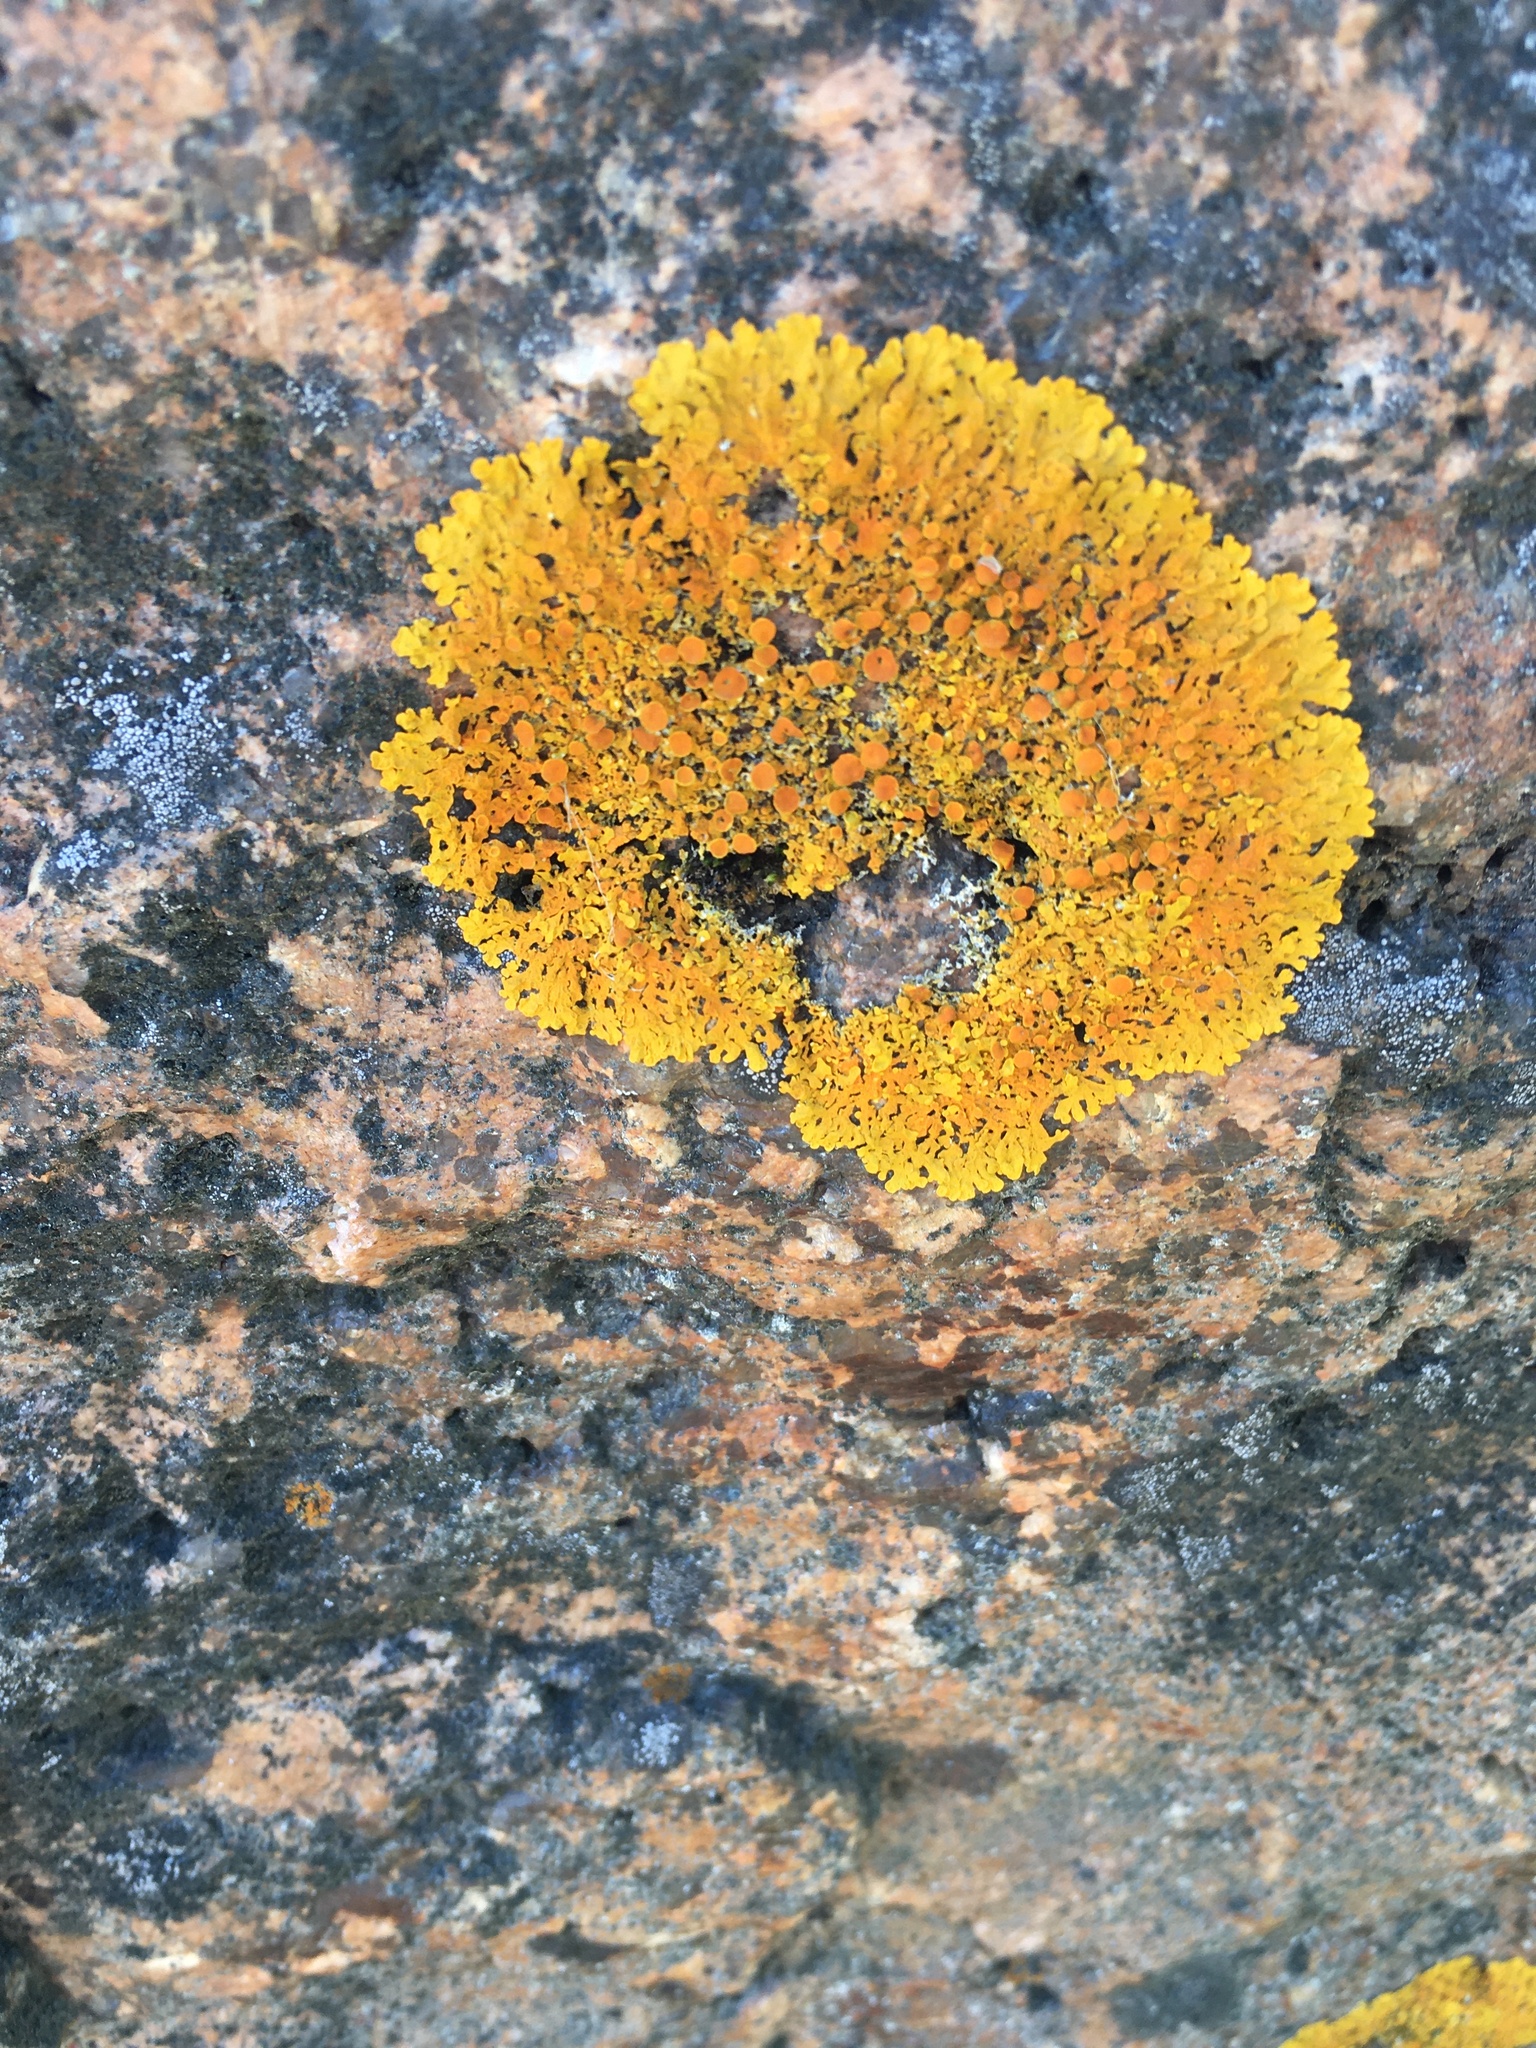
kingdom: Fungi
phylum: Ascomycota
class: Lecanoromycetes
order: Teloschistales
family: Teloschistaceae
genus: Xanthoria
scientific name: Xanthoria parietina
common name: Common orange lichen
